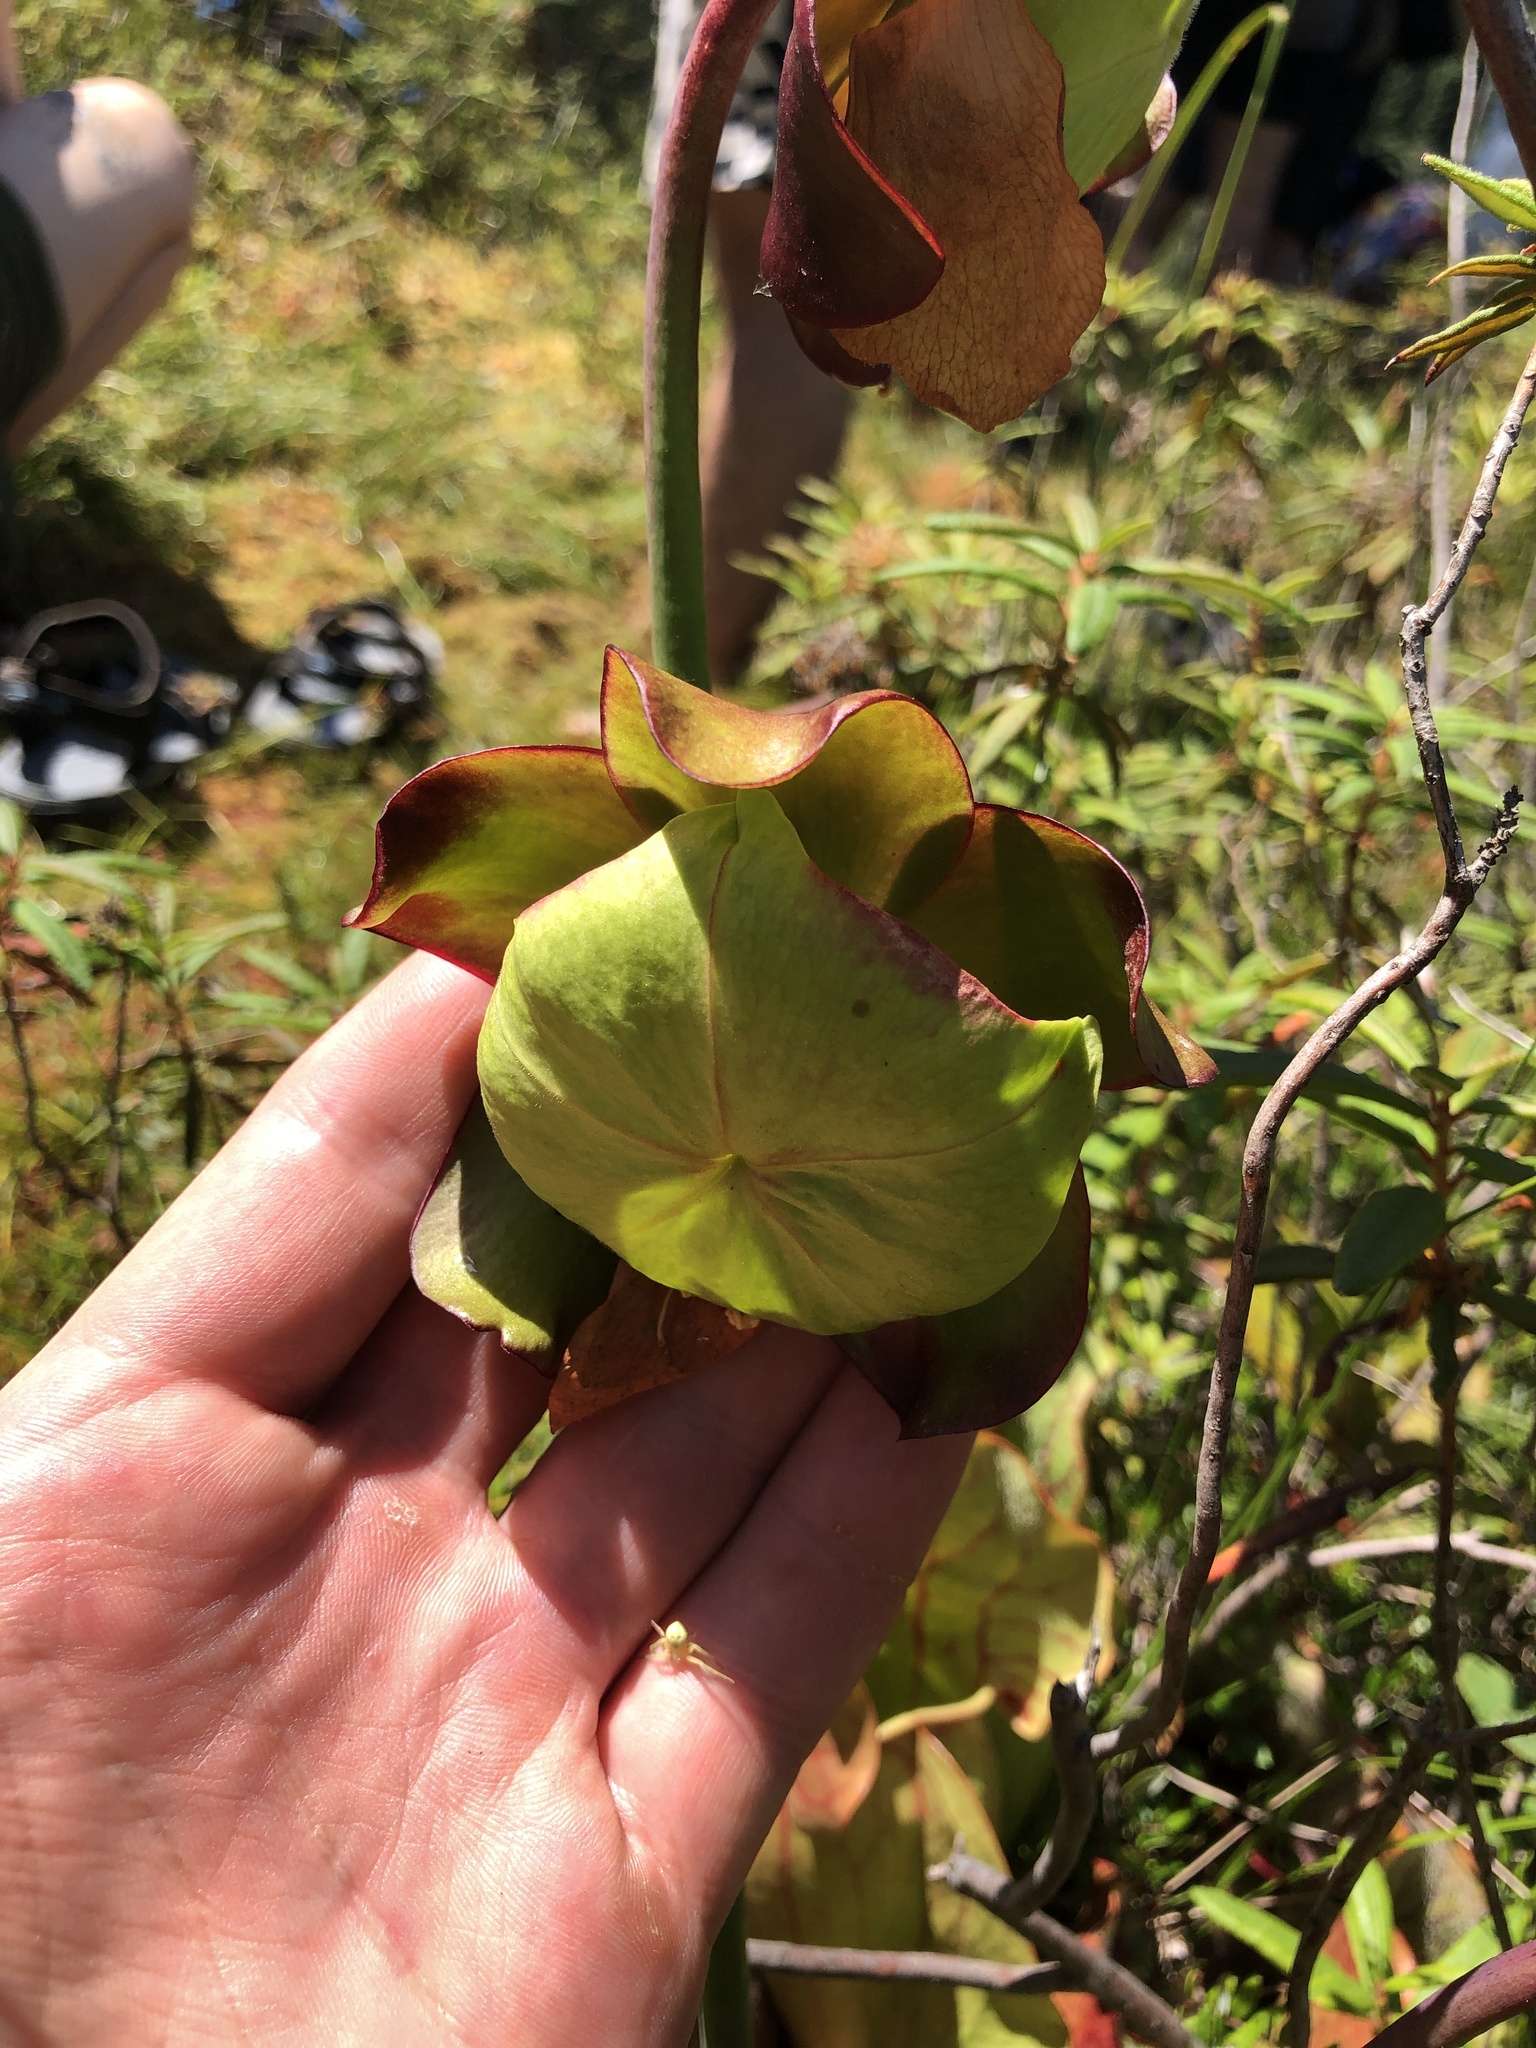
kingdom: Plantae
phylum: Tracheophyta
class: Magnoliopsida
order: Ericales
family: Sarraceniaceae
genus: Sarracenia
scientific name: Sarracenia purpurea
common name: Pitcherplant
